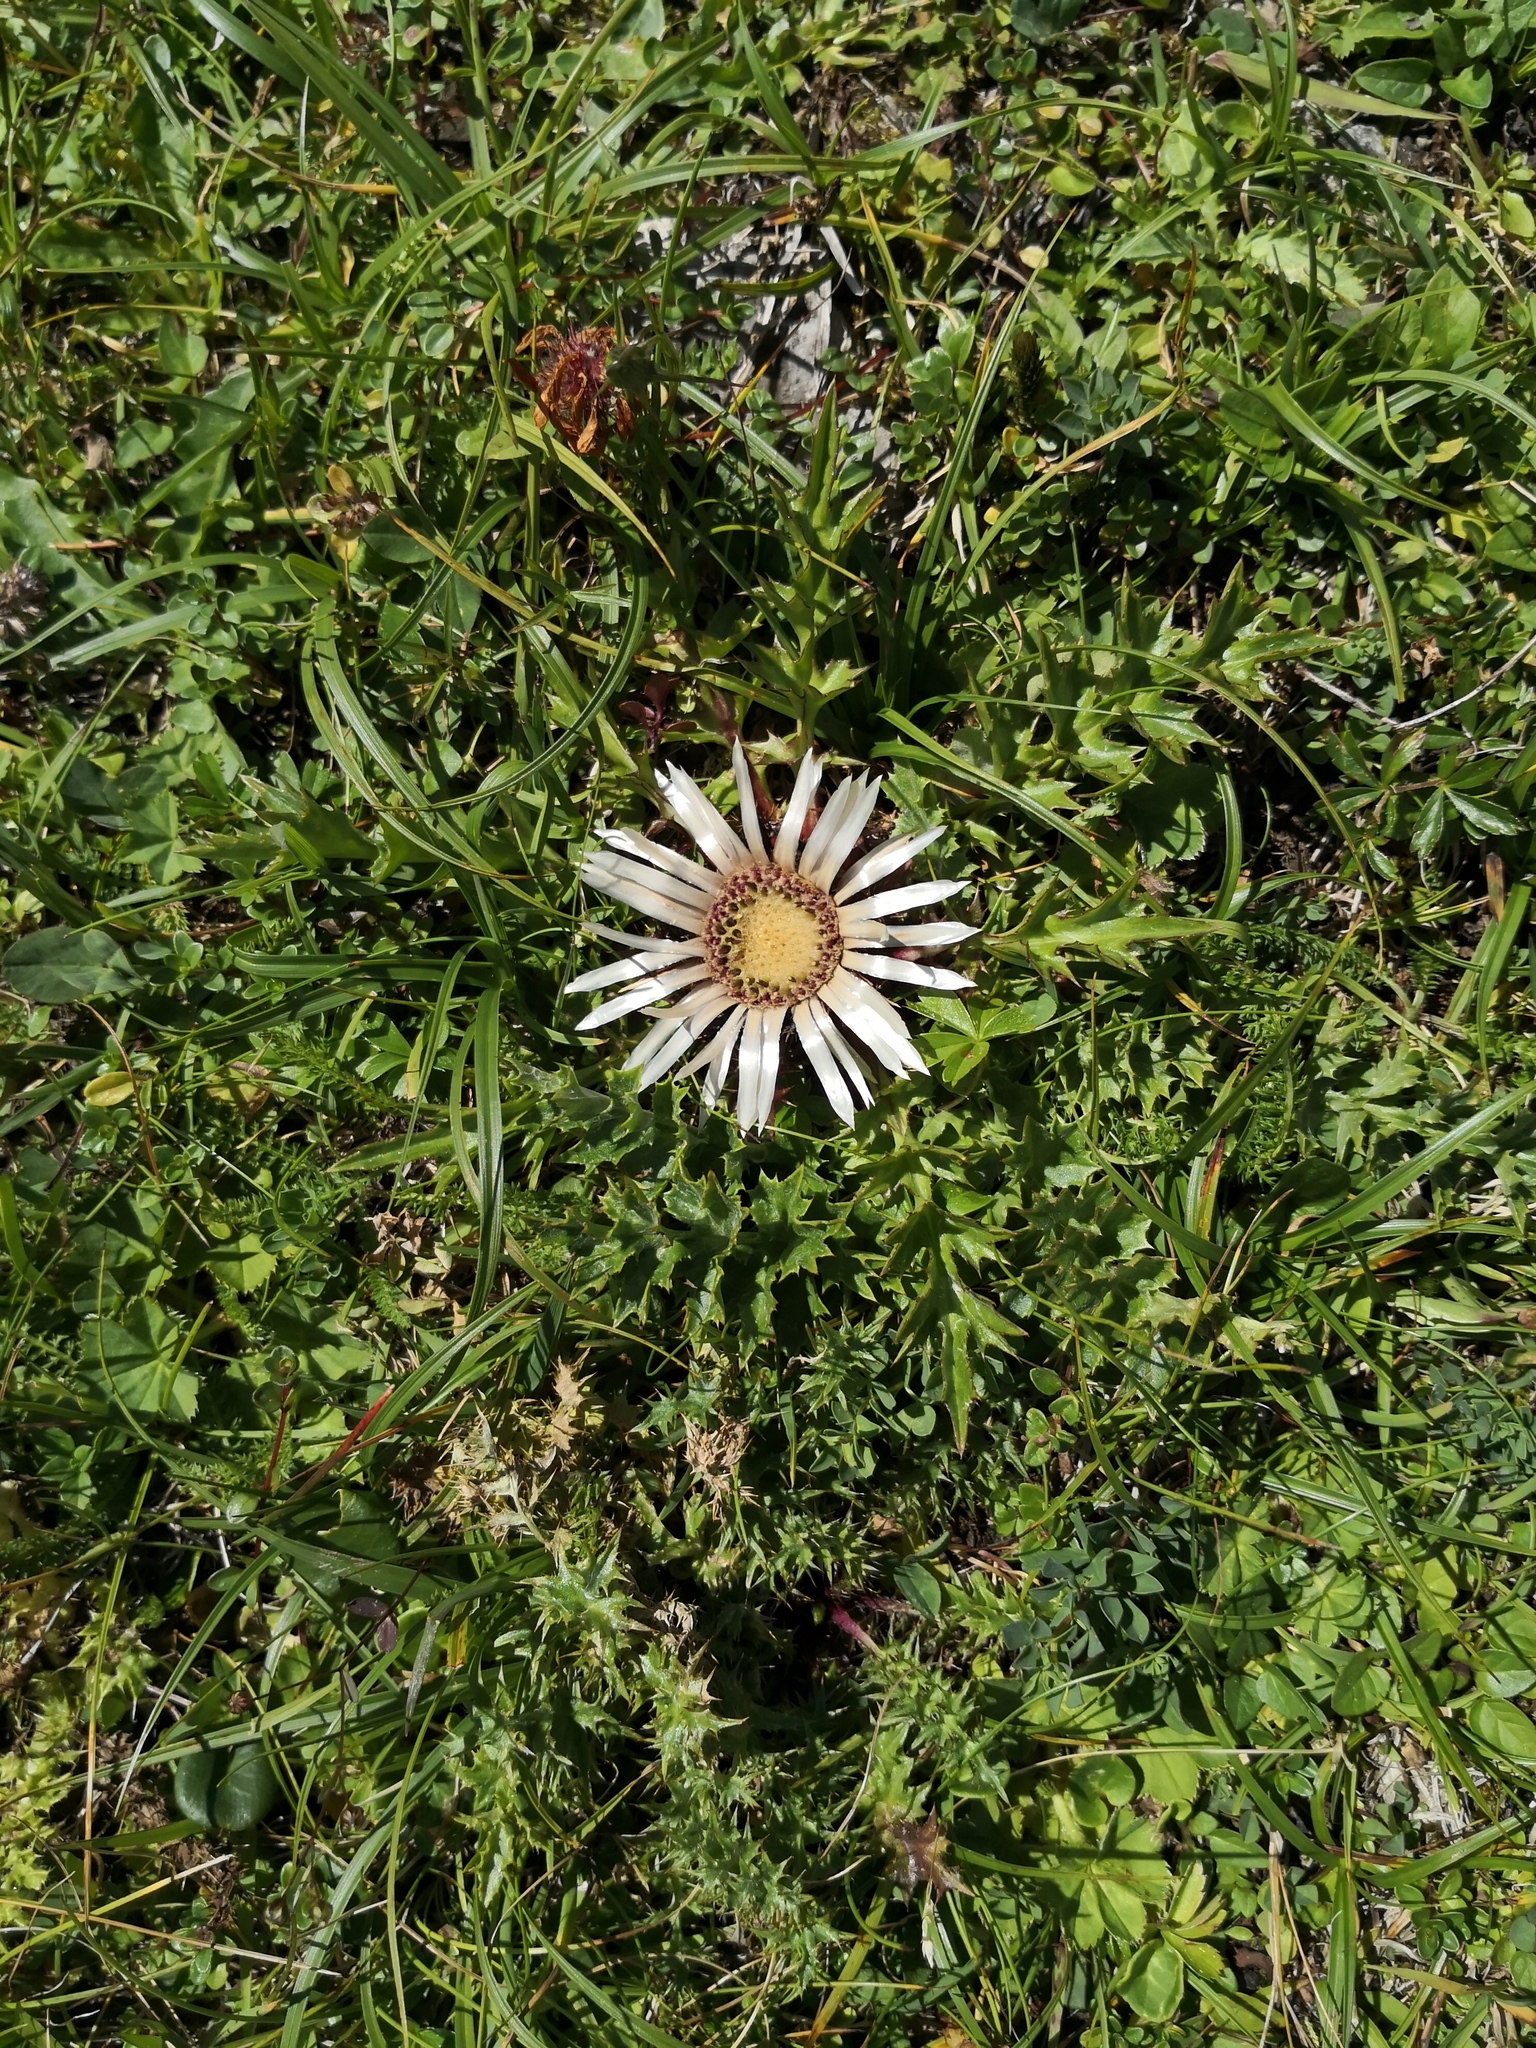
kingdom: Plantae
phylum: Tracheophyta
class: Magnoliopsida
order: Asterales
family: Asteraceae
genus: Carlina
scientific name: Carlina acaulis
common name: Stemless carline thistle
